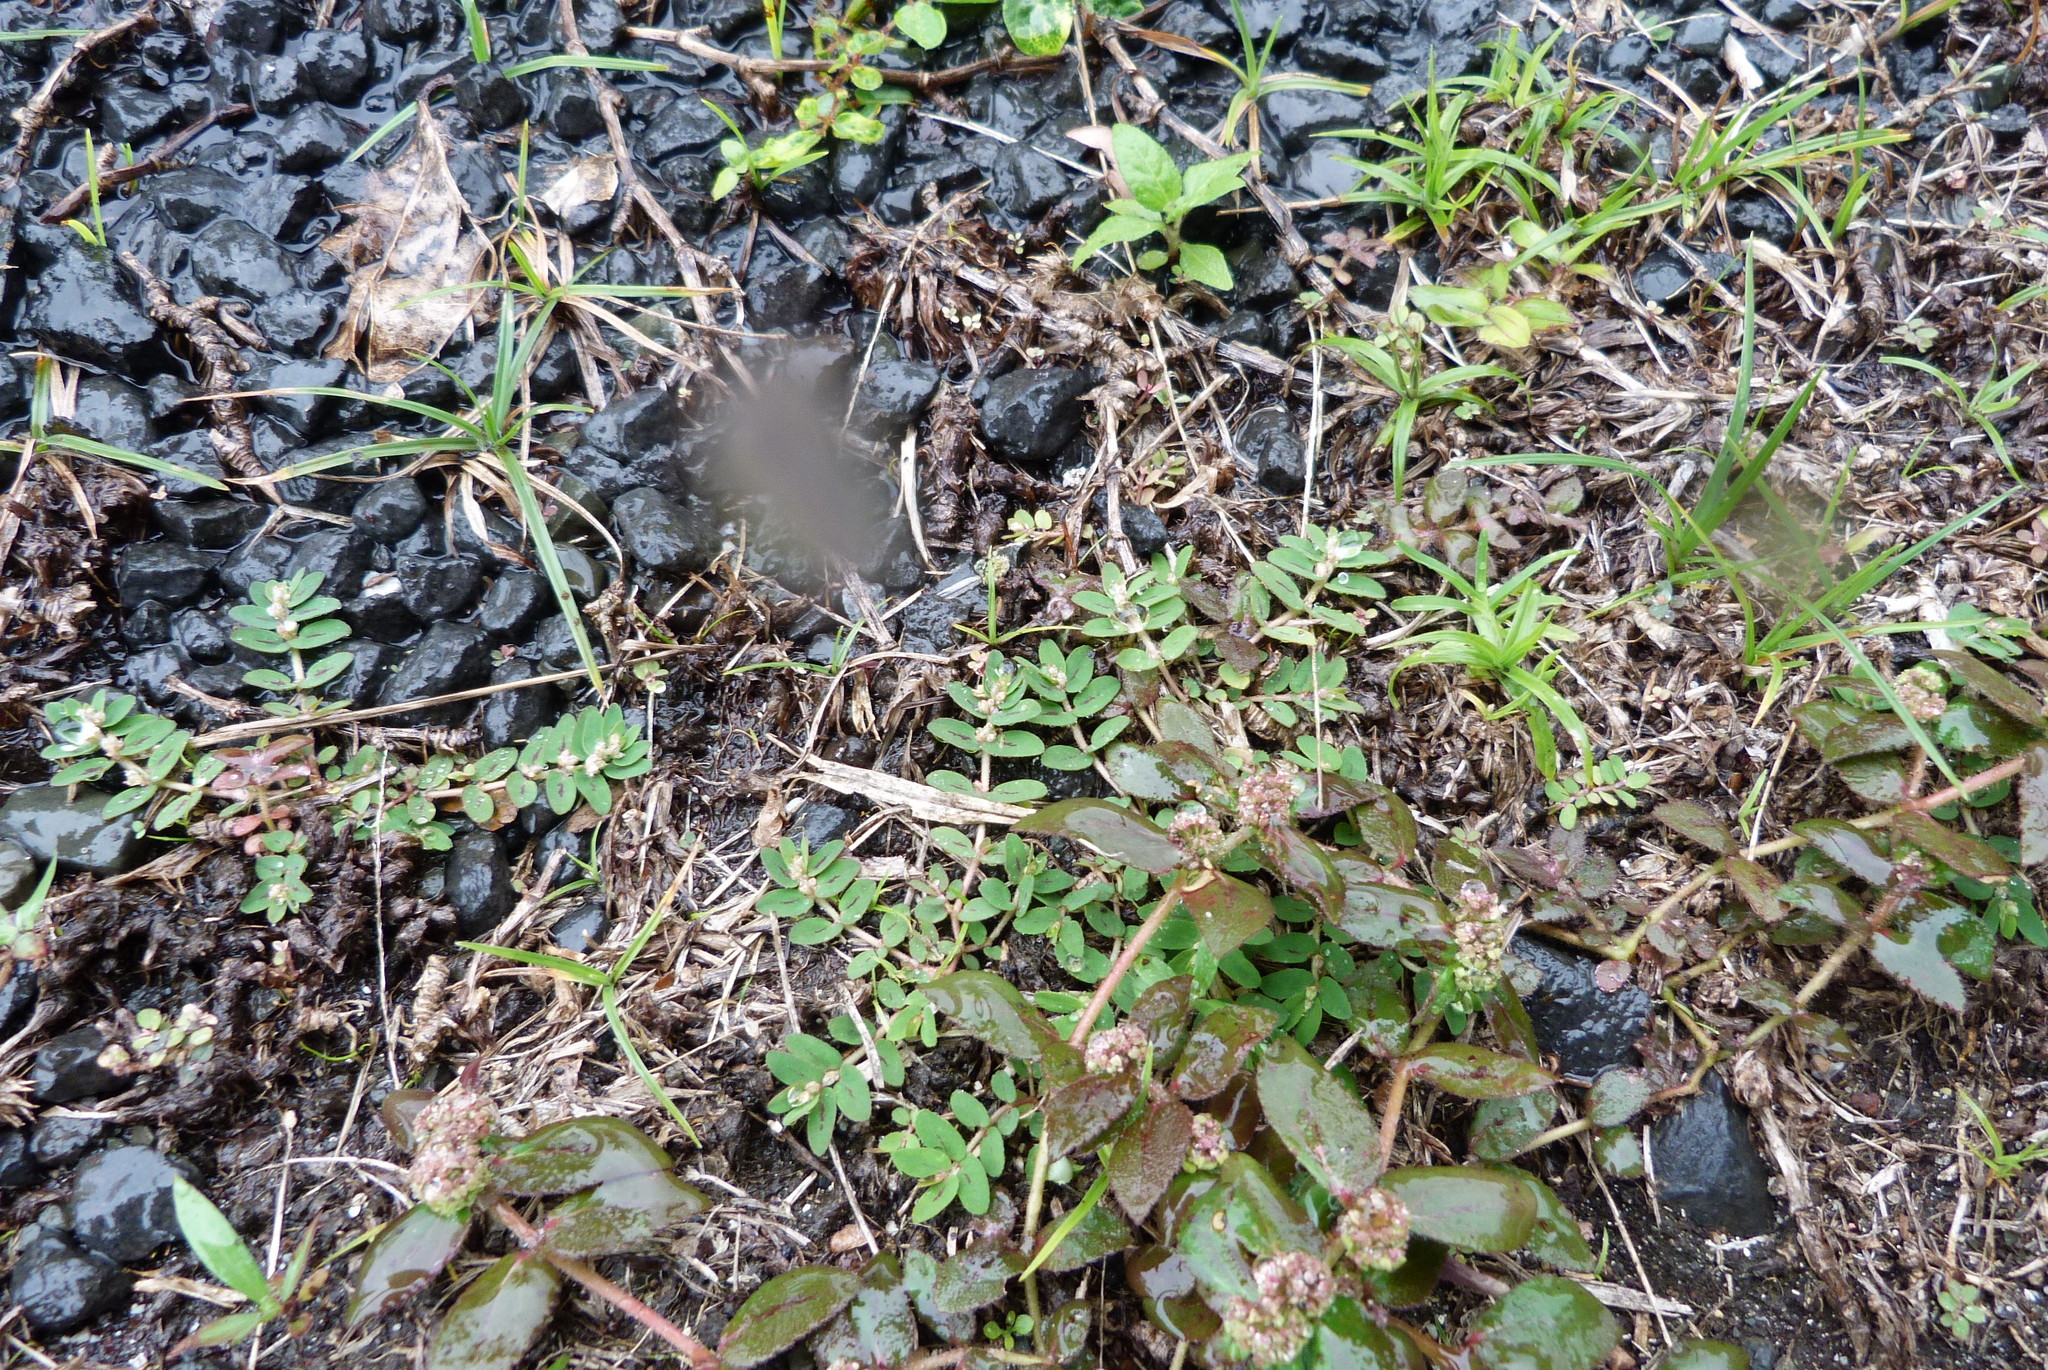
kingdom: Plantae
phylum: Tracheophyta
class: Magnoliopsida
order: Malpighiales
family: Euphorbiaceae
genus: Euphorbia
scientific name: Euphorbia thymifolia
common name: Gulf sandmat
